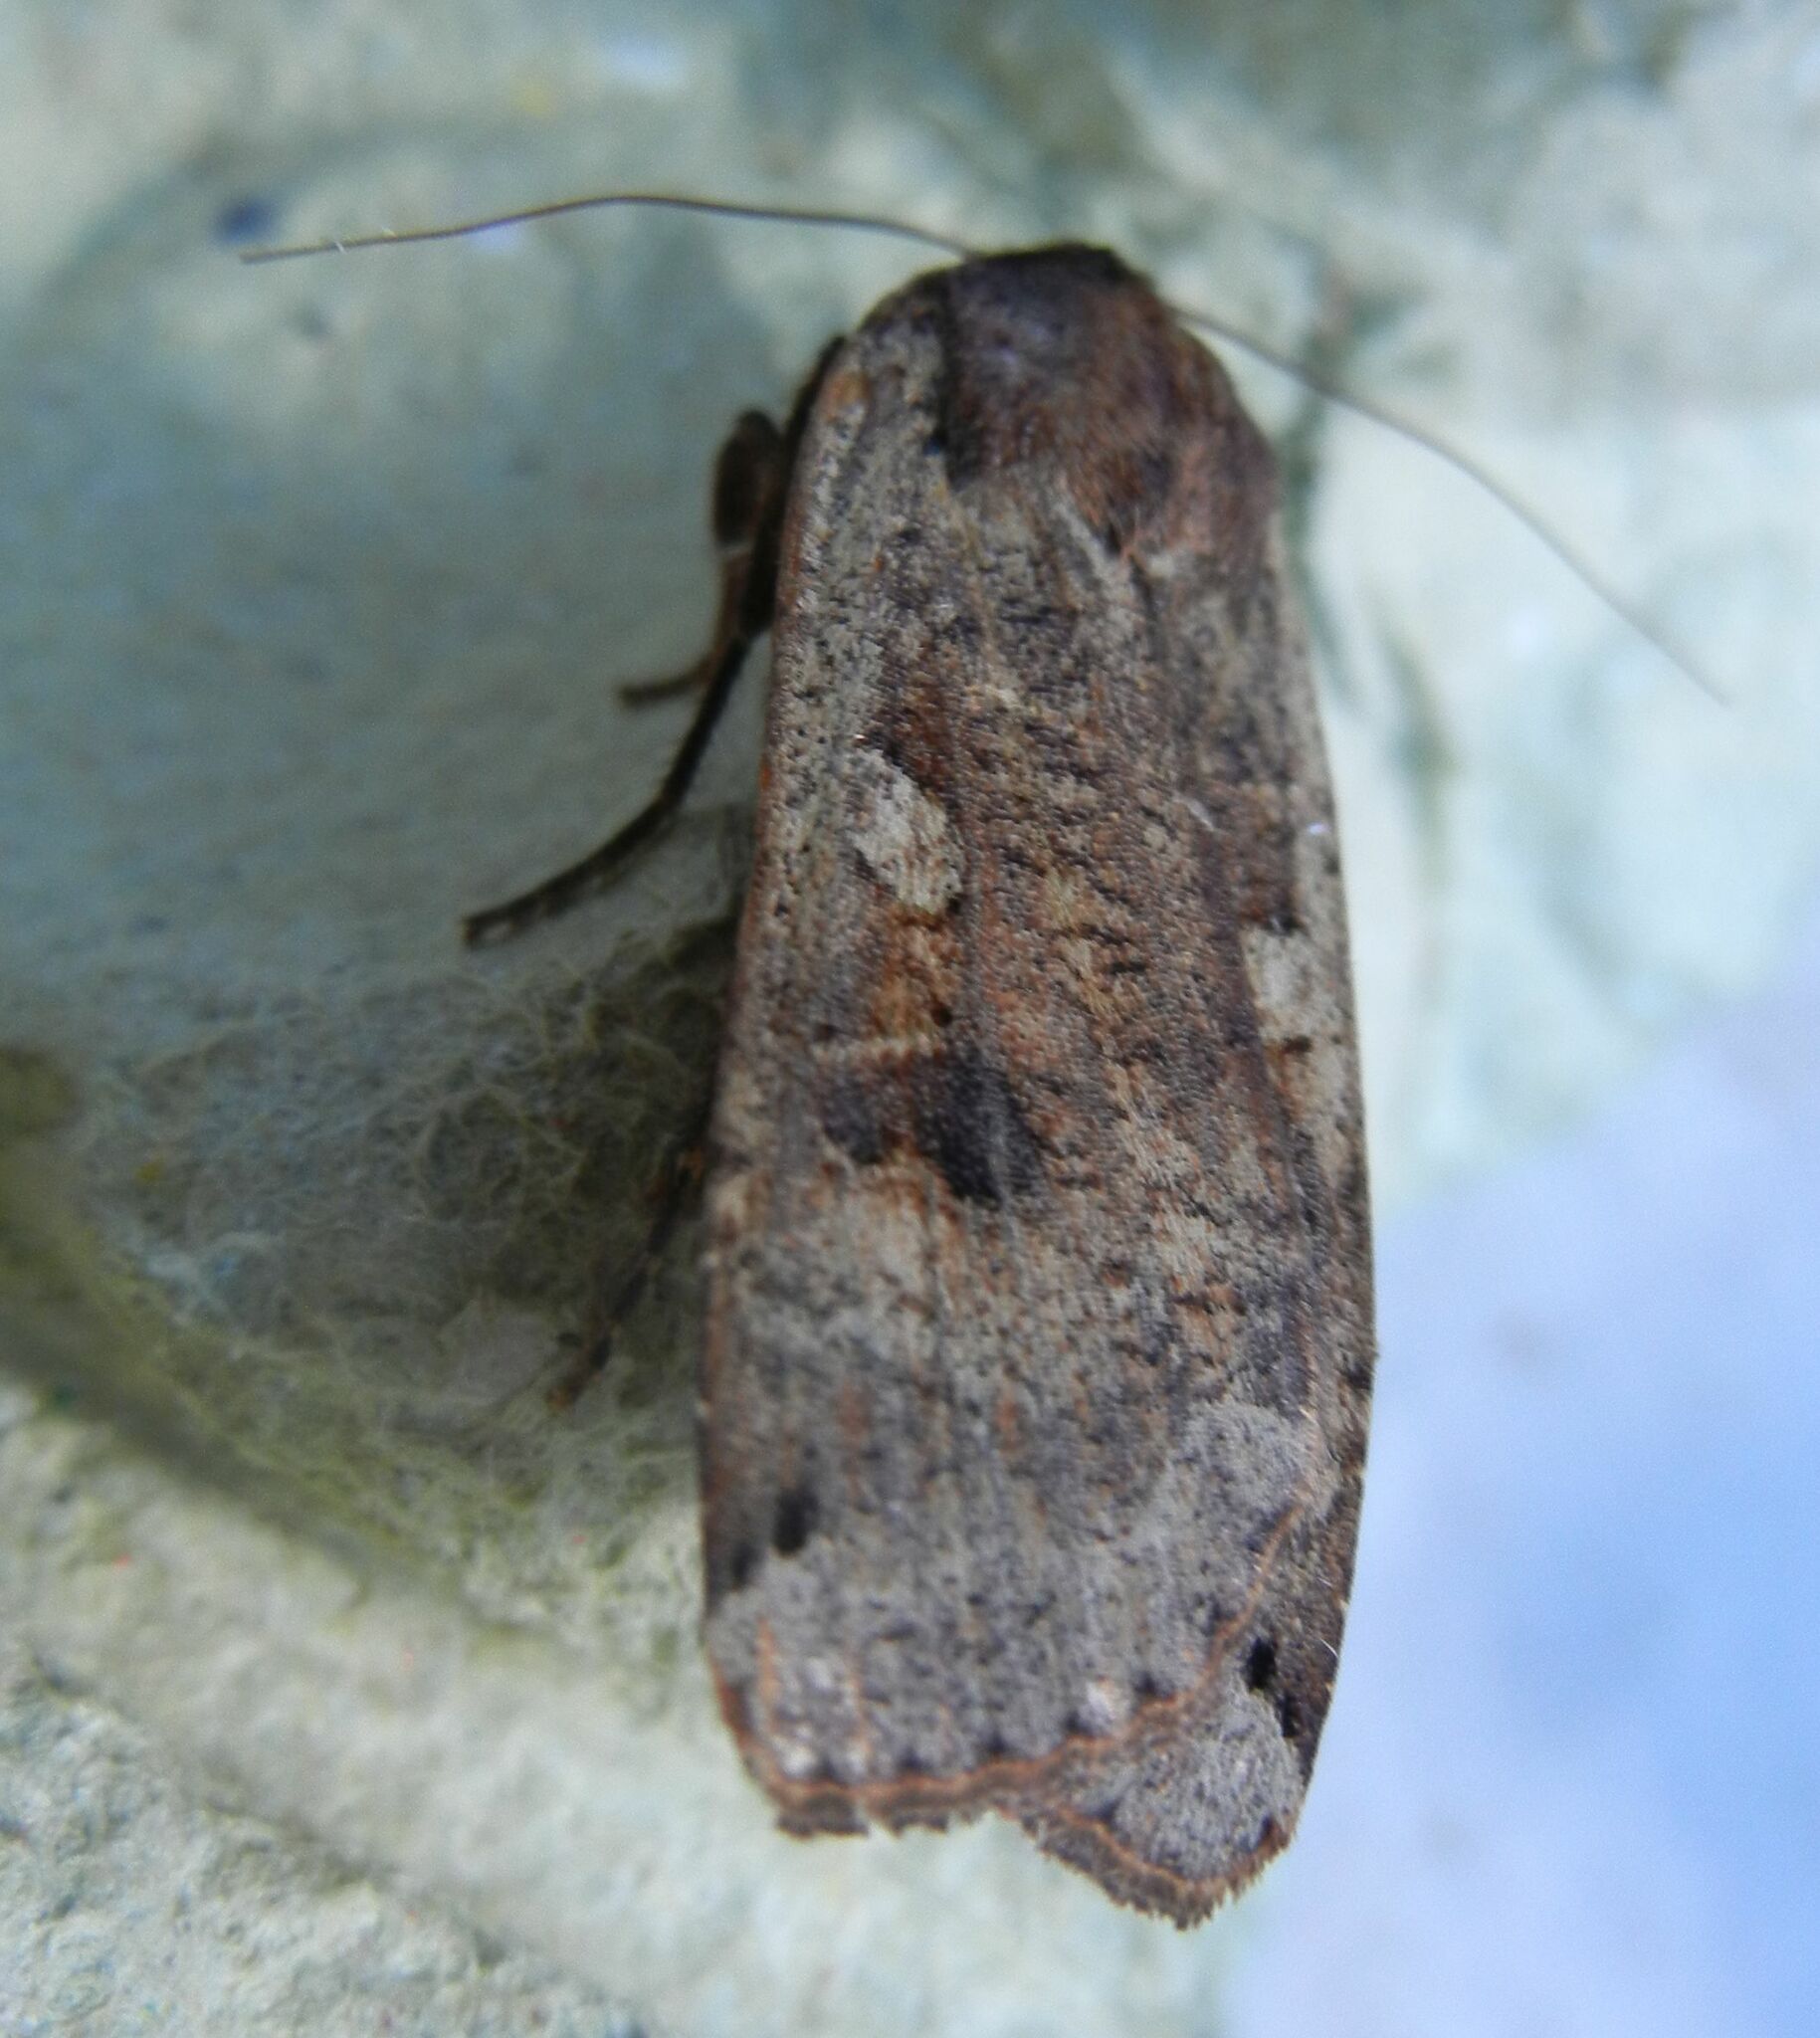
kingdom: Animalia
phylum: Arthropoda
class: Insecta
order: Lepidoptera
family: Noctuidae
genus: Noctua
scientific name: Noctua pronuba
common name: Large yellow underwing
